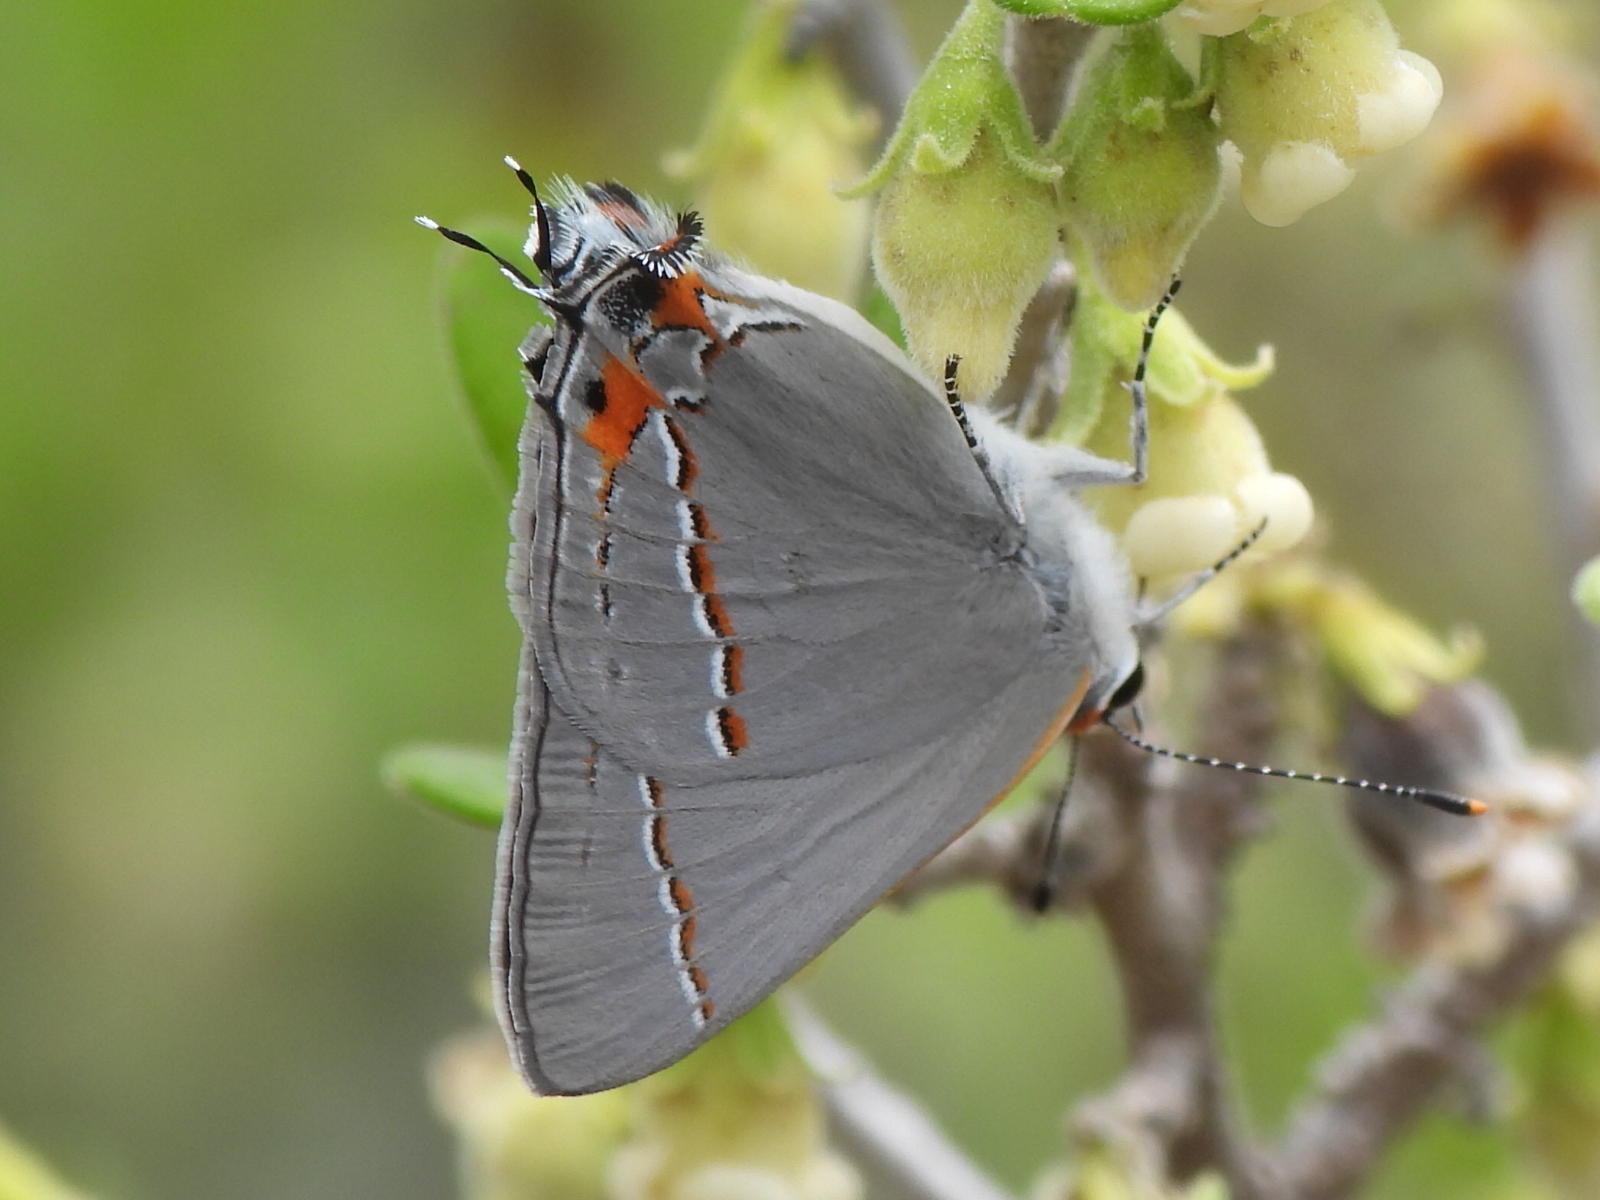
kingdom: Animalia
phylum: Arthropoda
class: Insecta
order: Lepidoptera
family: Lycaenidae
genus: Strymon
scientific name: Strymon melinus
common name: Gray hairstreak
